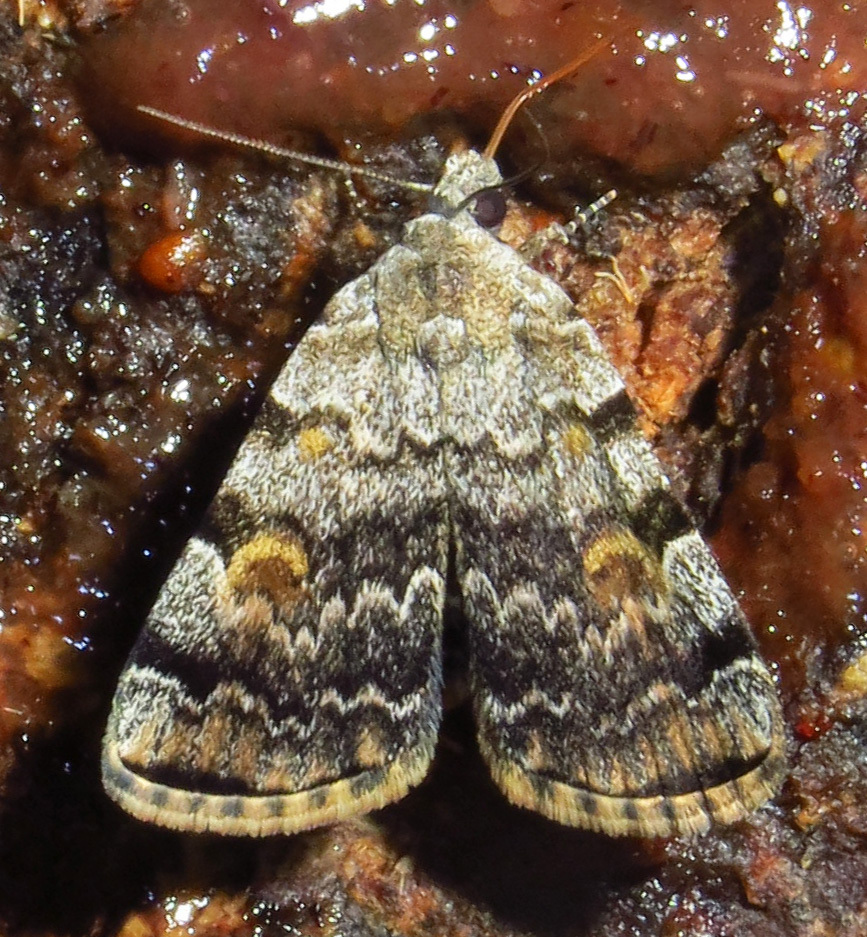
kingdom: Animalia
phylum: Arthropoda
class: Insecta
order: Lepidoptera
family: Erebidae
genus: Idia
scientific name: Idia americalis
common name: American idia moth
